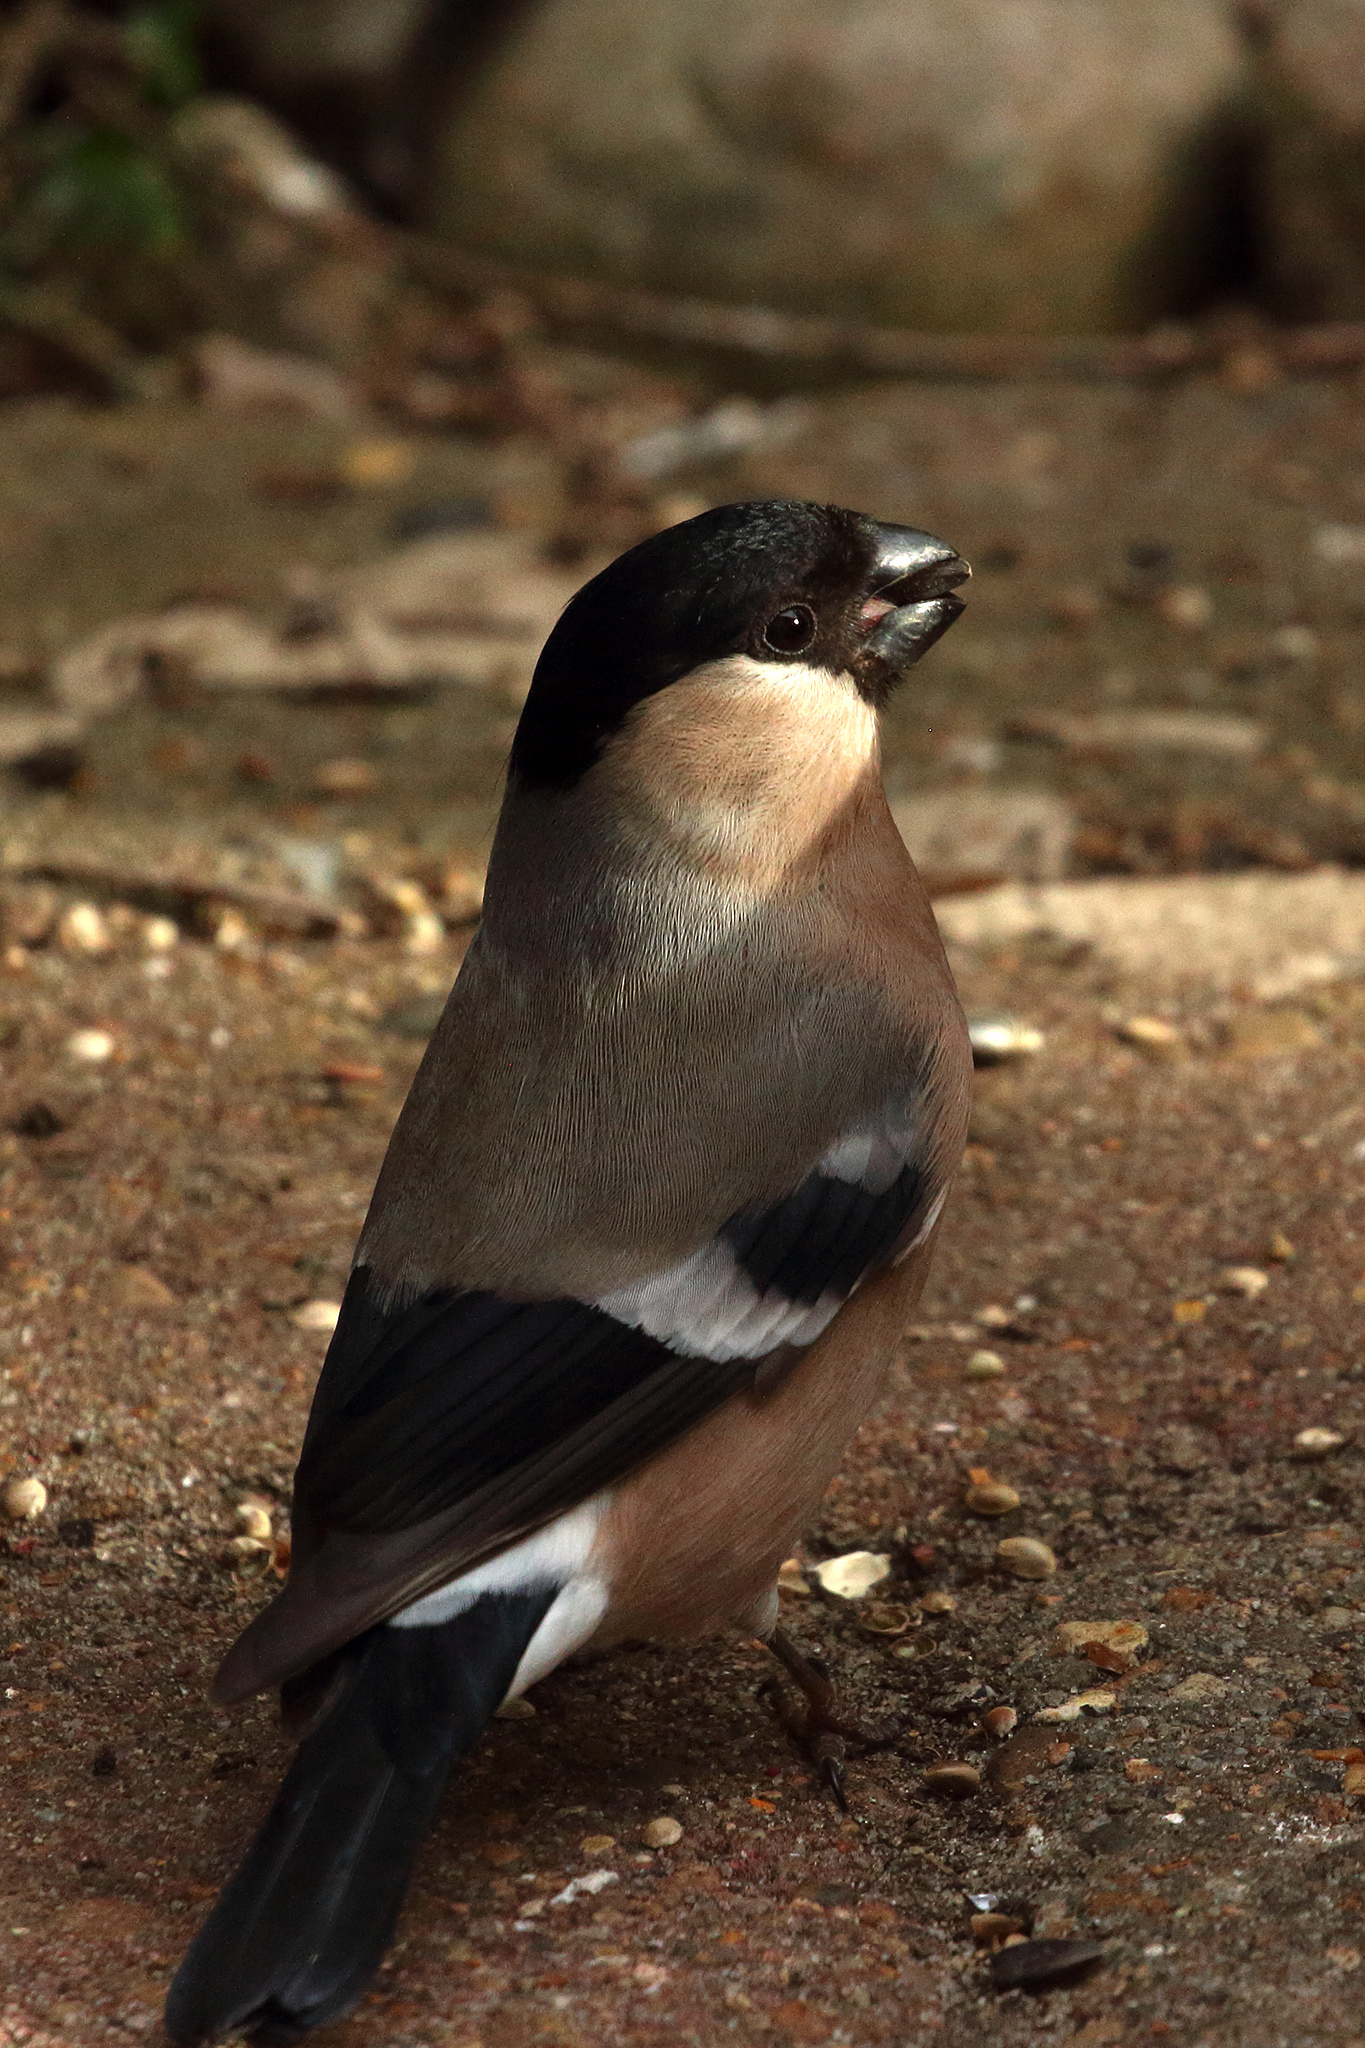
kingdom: Animalia
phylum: Chordata
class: Aves
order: Passeriformes
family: Fringillidae
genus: Pyrrhula
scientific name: Pyrrhula pyrrhula
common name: Eurasian bullfinch
